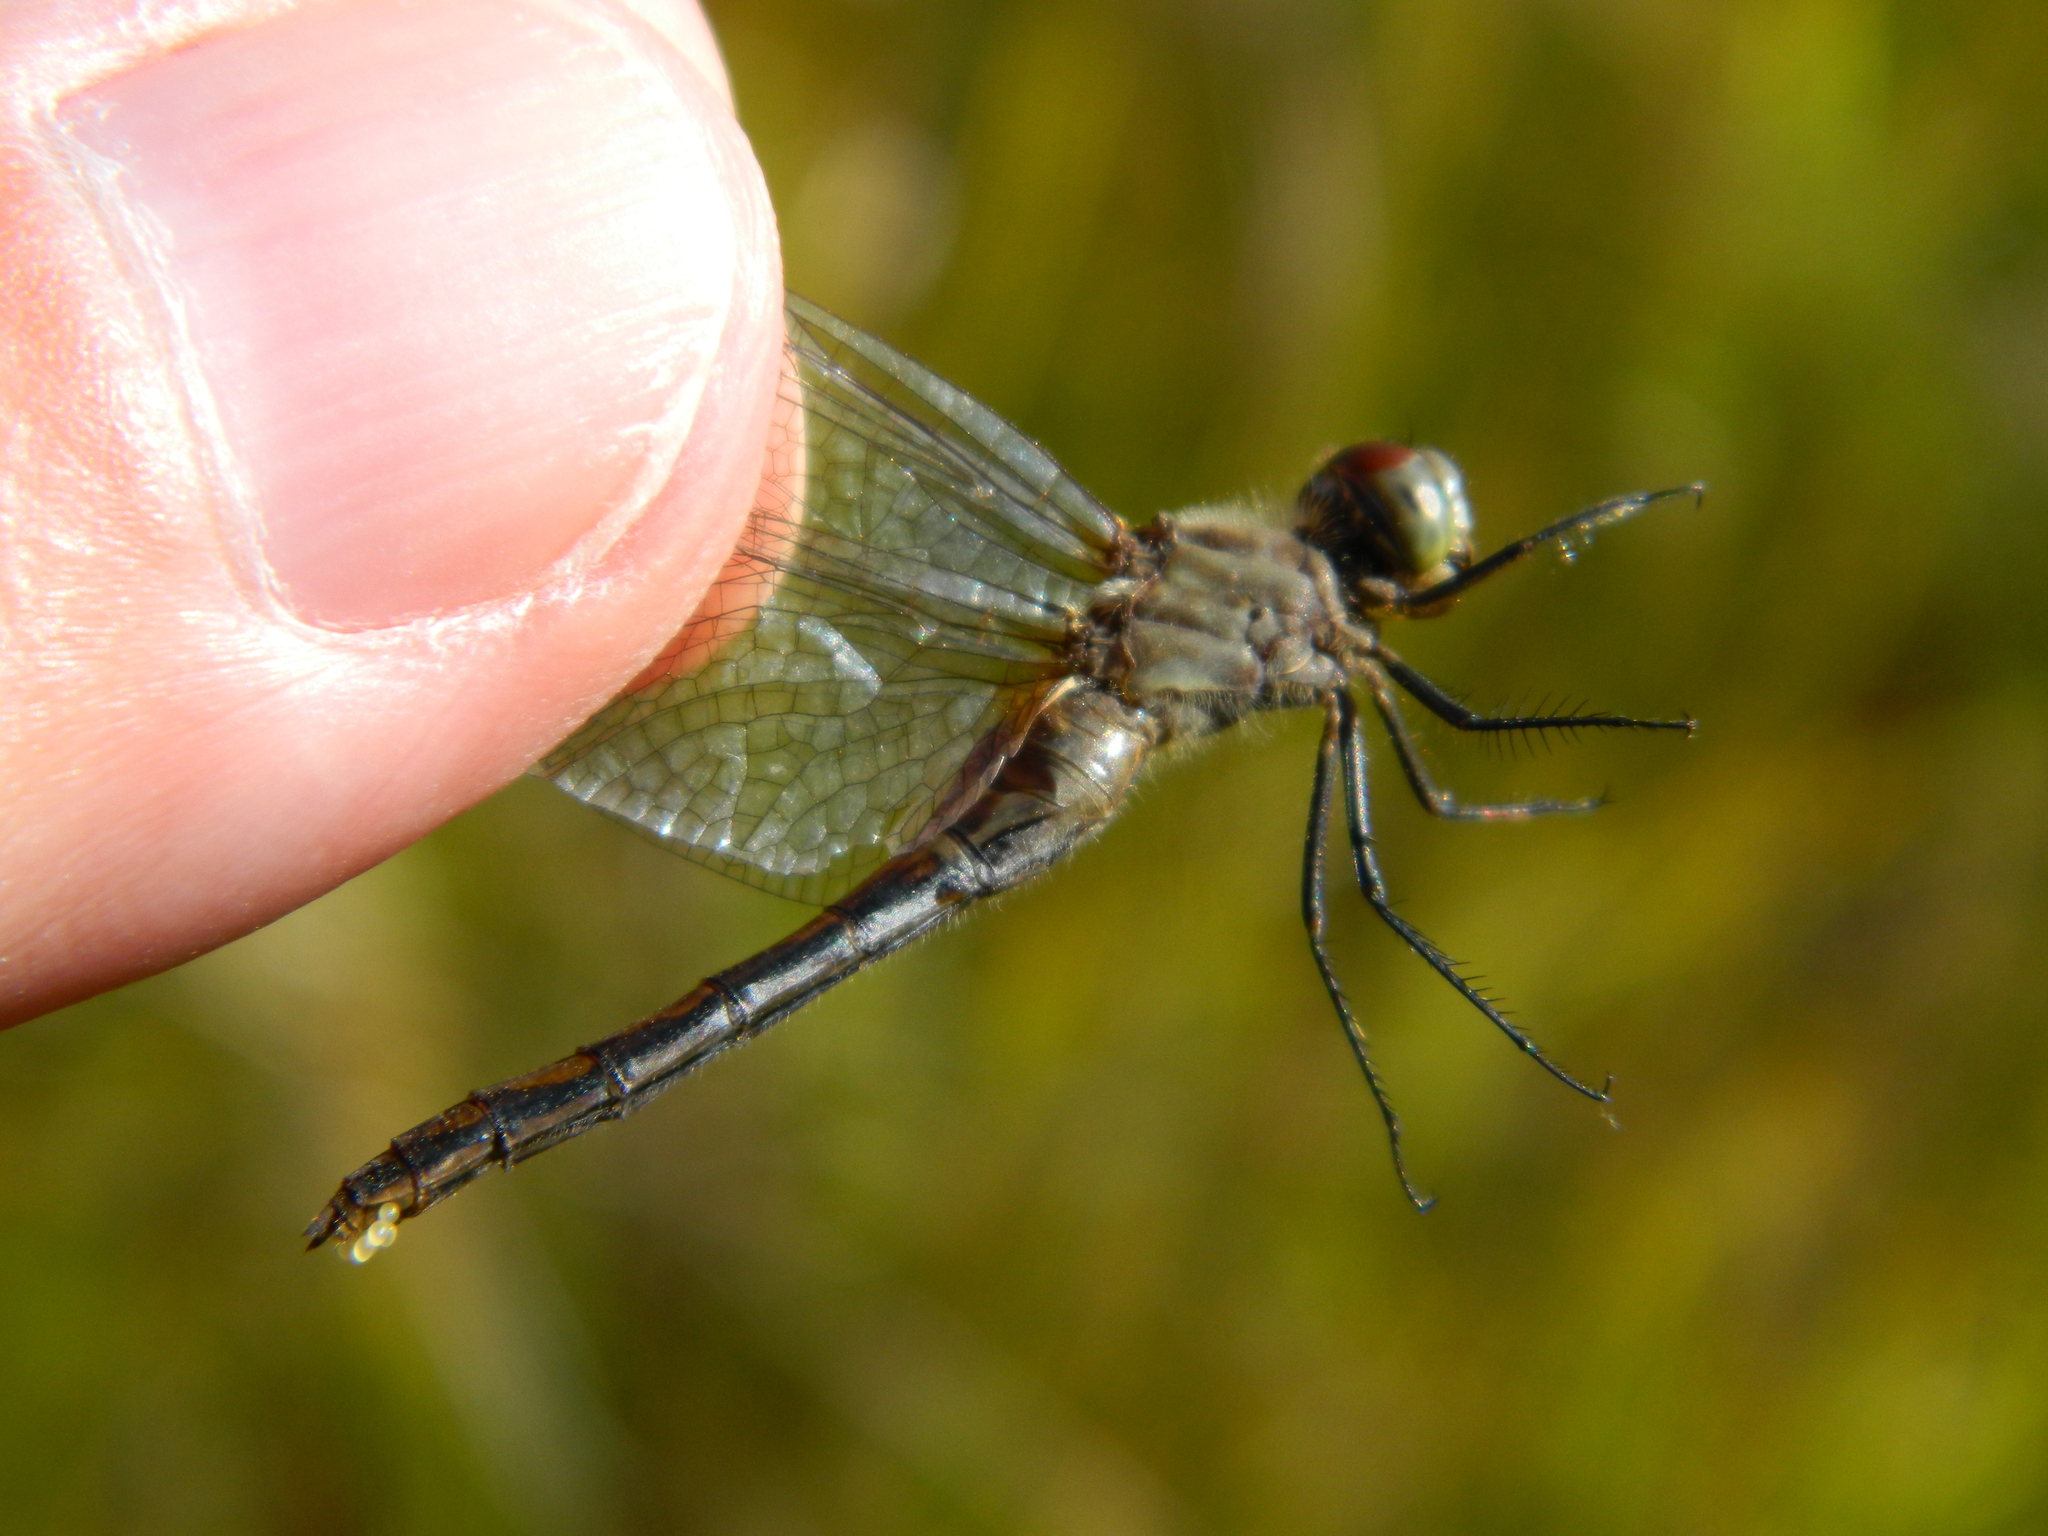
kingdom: Animalia
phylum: Arthropoda
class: Insecta
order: Odonata
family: Libellulidae
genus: Sympetrum
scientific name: Sympetrum obtrusum
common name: White-faced meadowhawk
